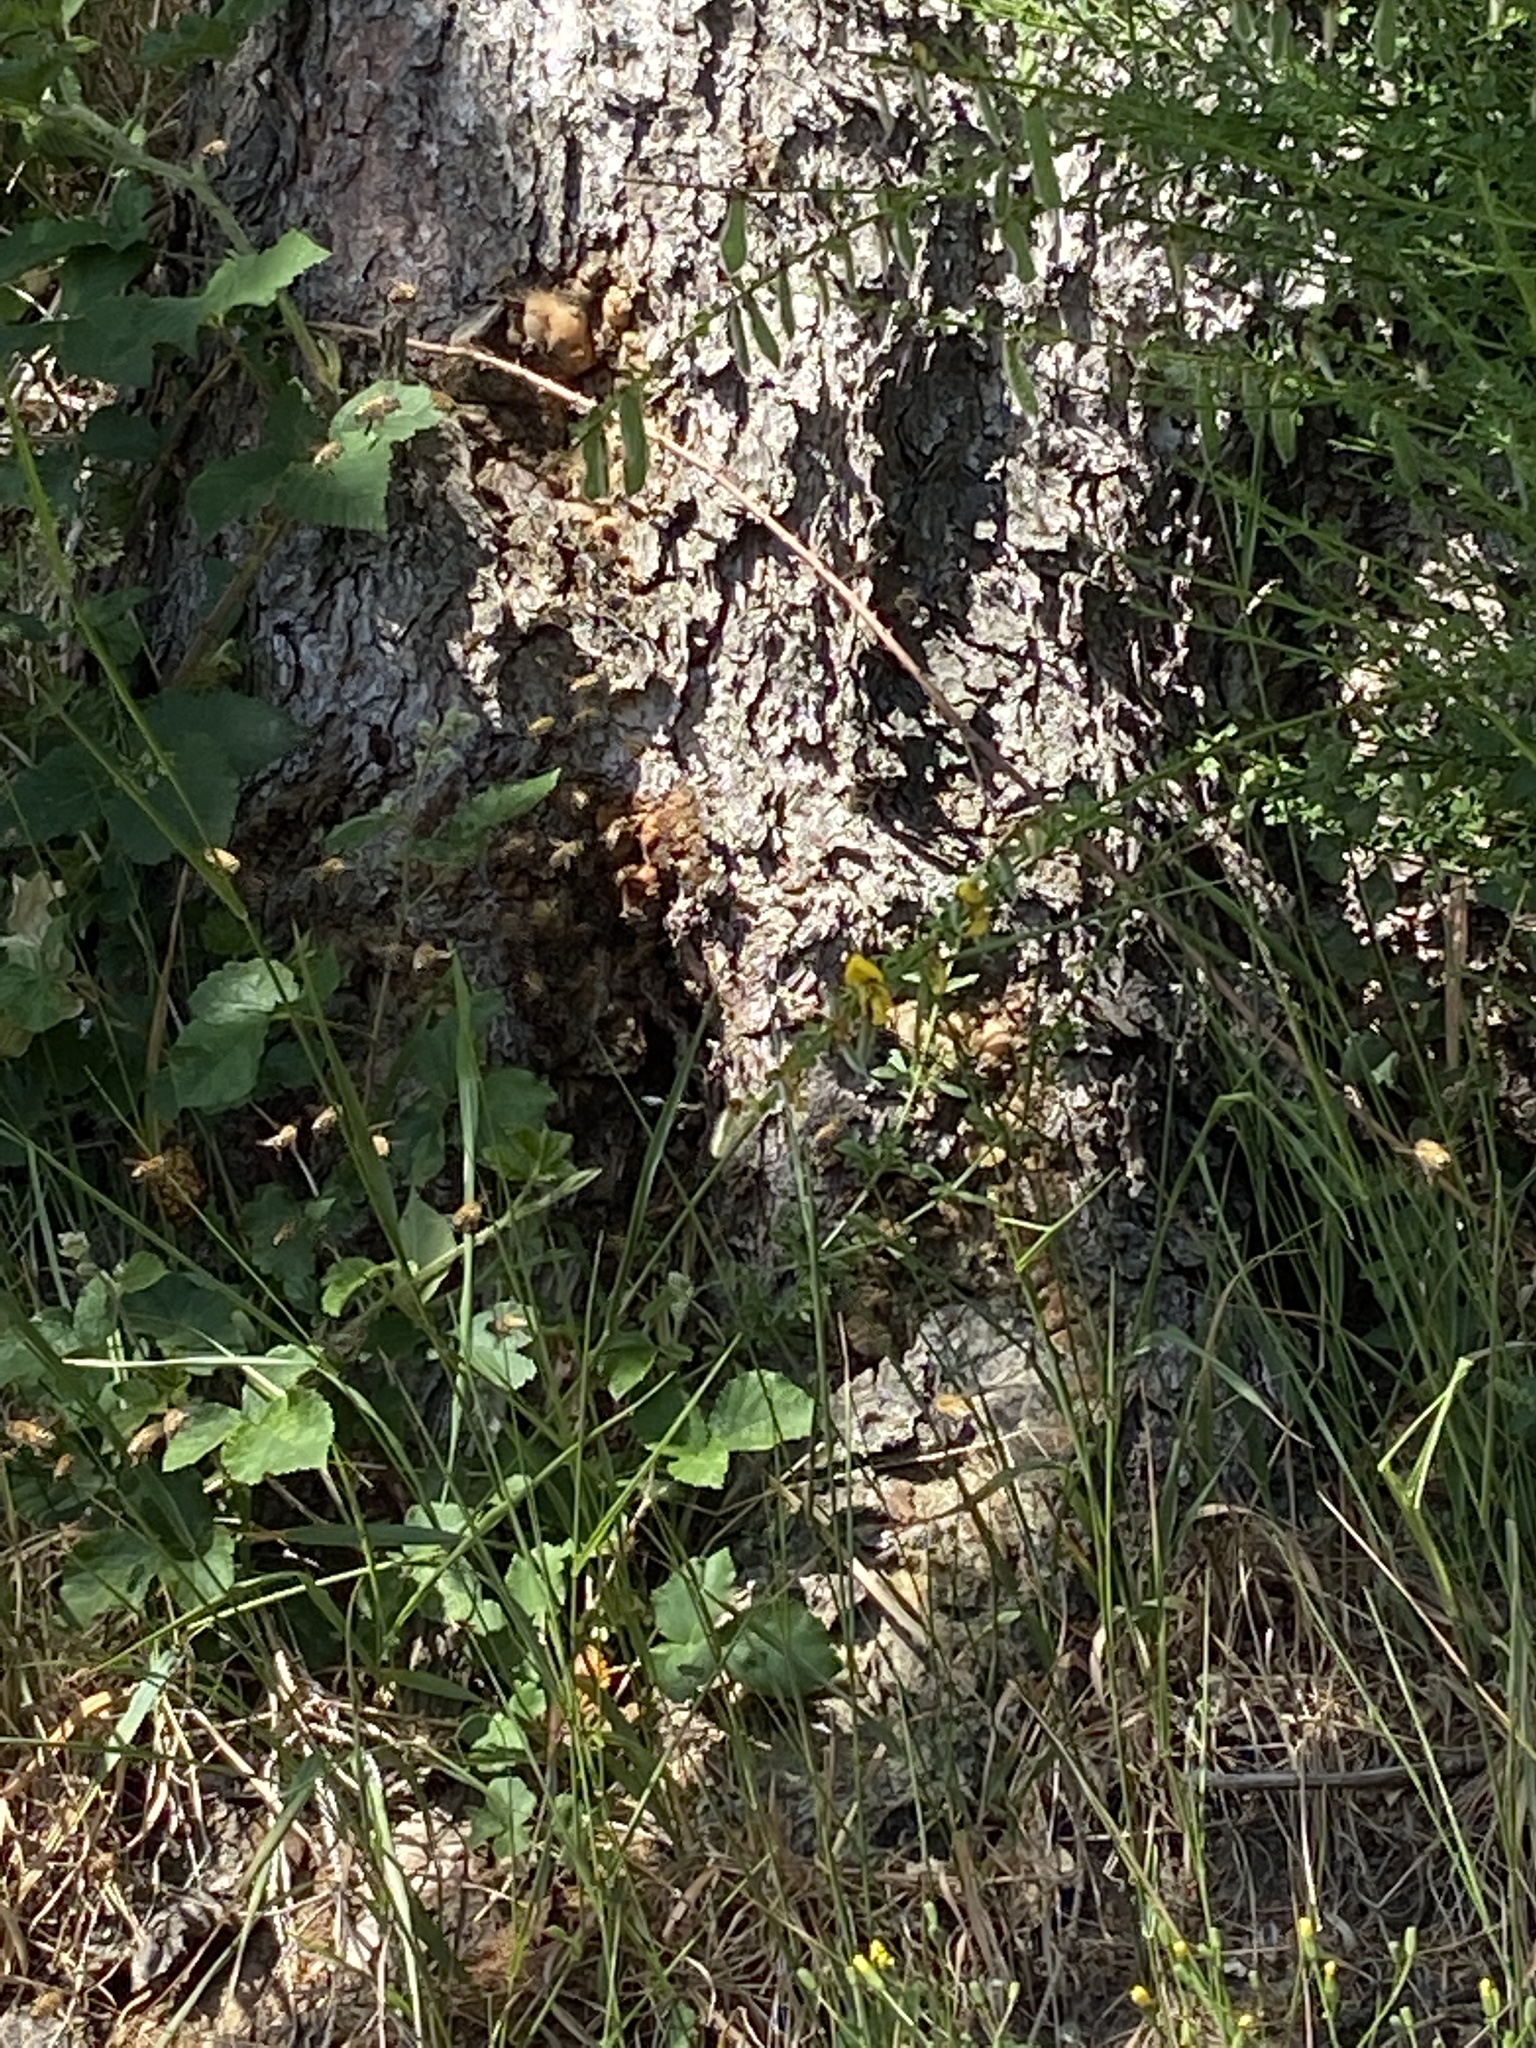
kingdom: Animalia
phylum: Arthropoda
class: Insecta
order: Hymenoptera
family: Apidae
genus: Apis
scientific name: Apis mellifera
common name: Honey bee
